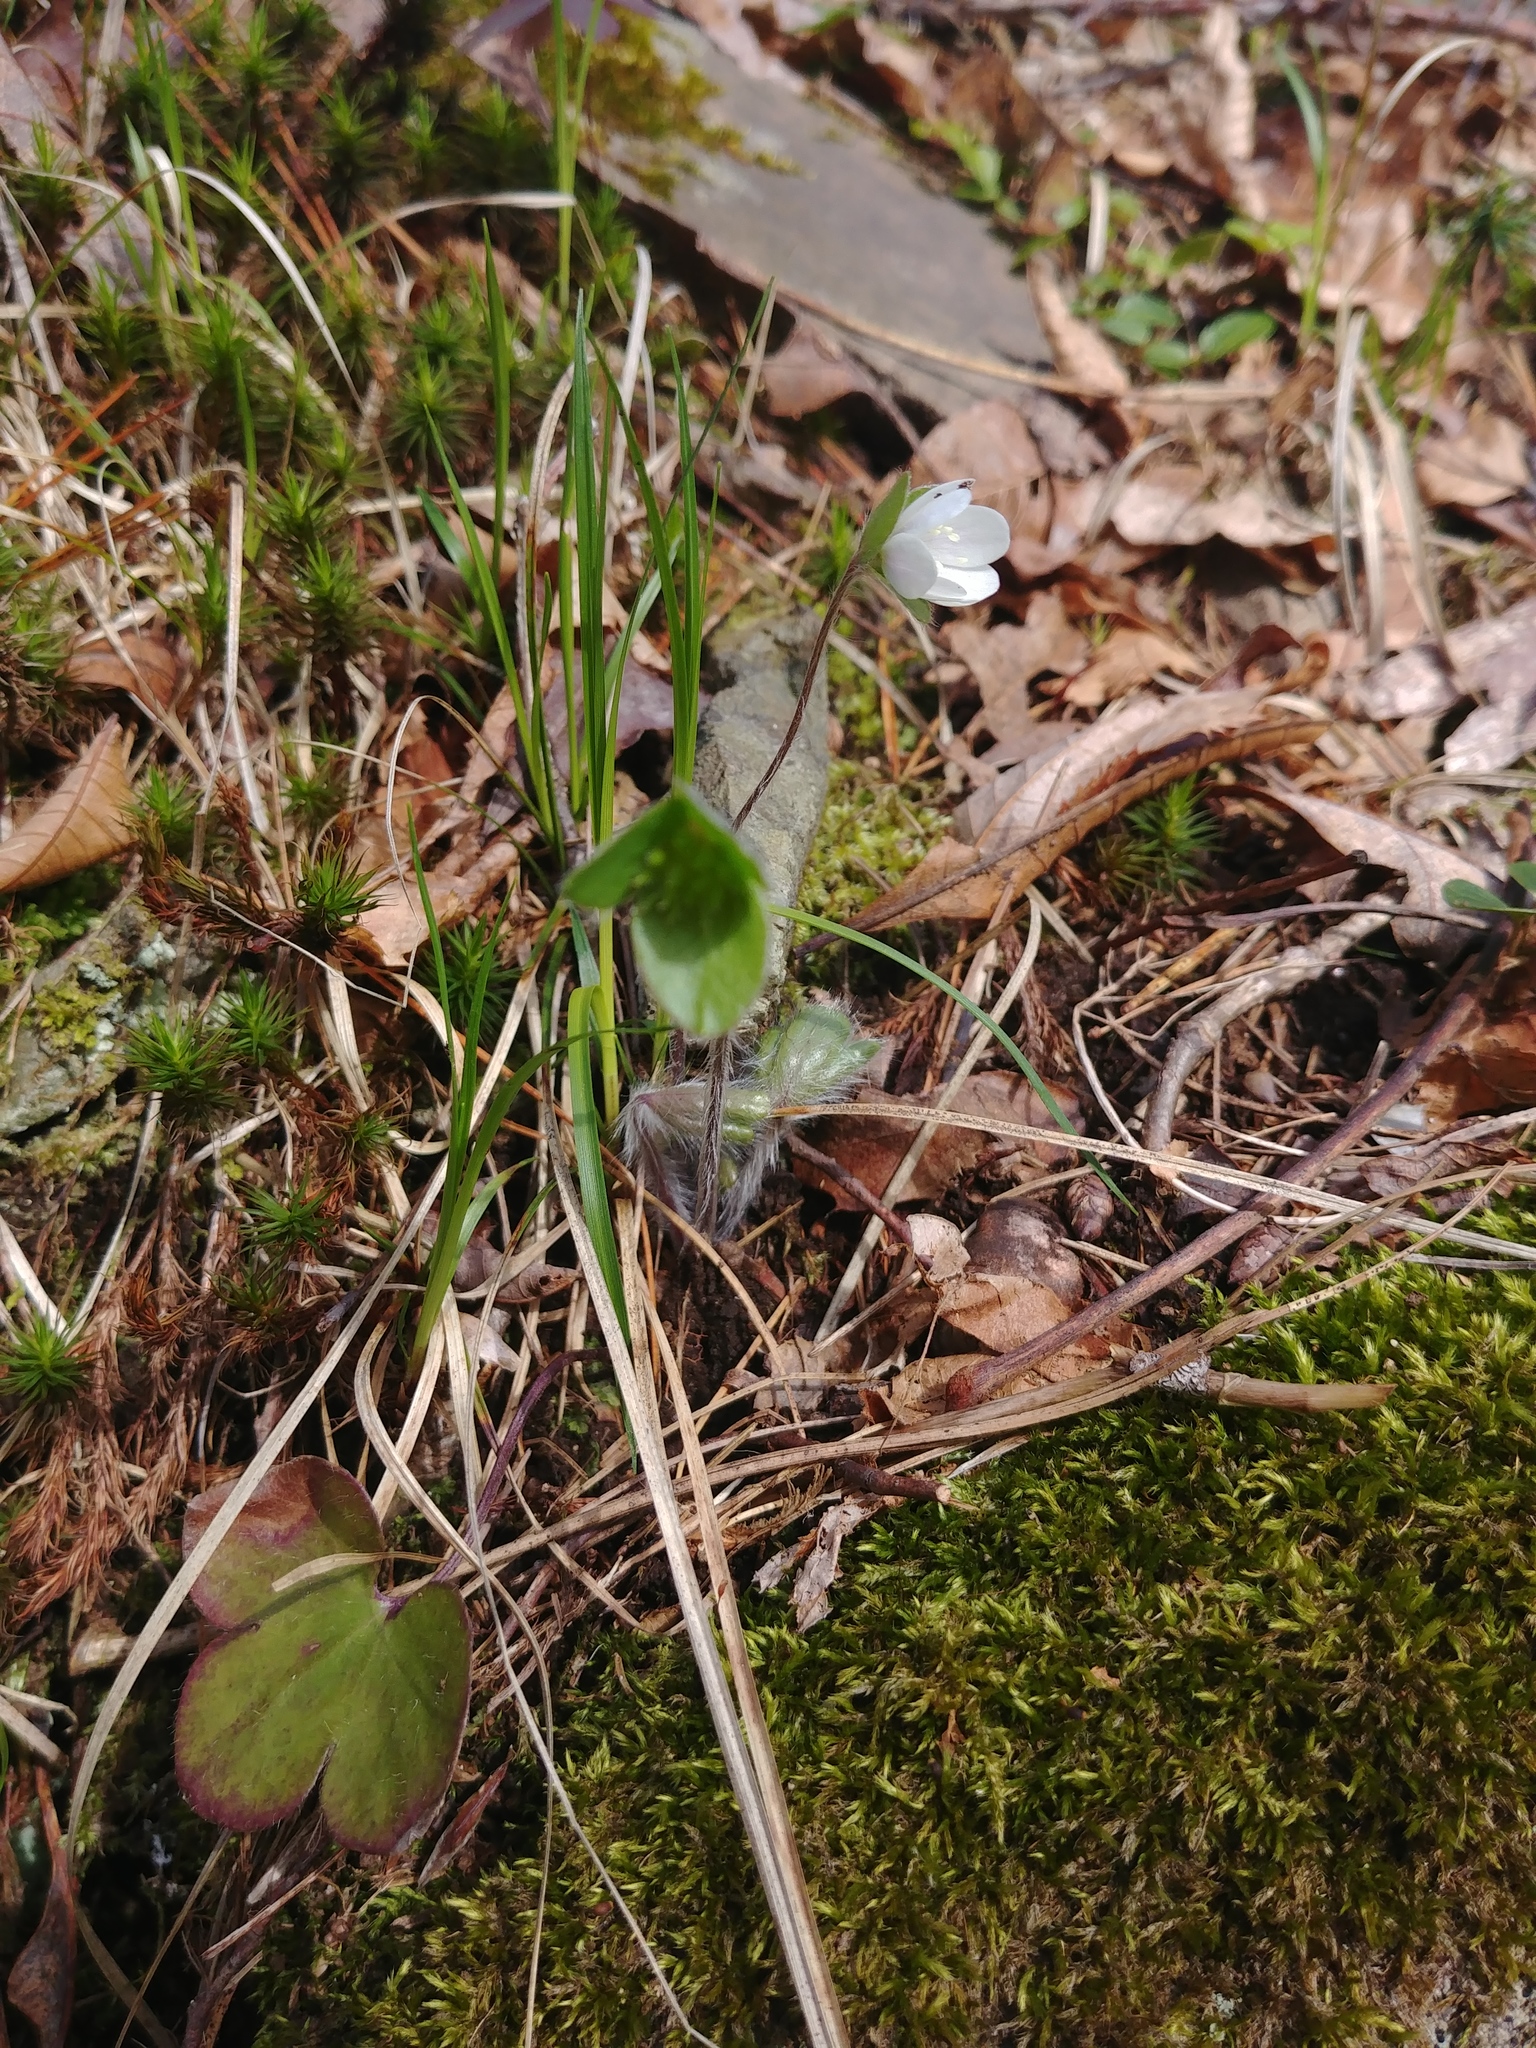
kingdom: Plantae
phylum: Tracheophyta
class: Magnoliopsida
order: Ranunculales
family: Ranunculaceae
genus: Hepatica
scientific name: Hepatica americana
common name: American hepatica
